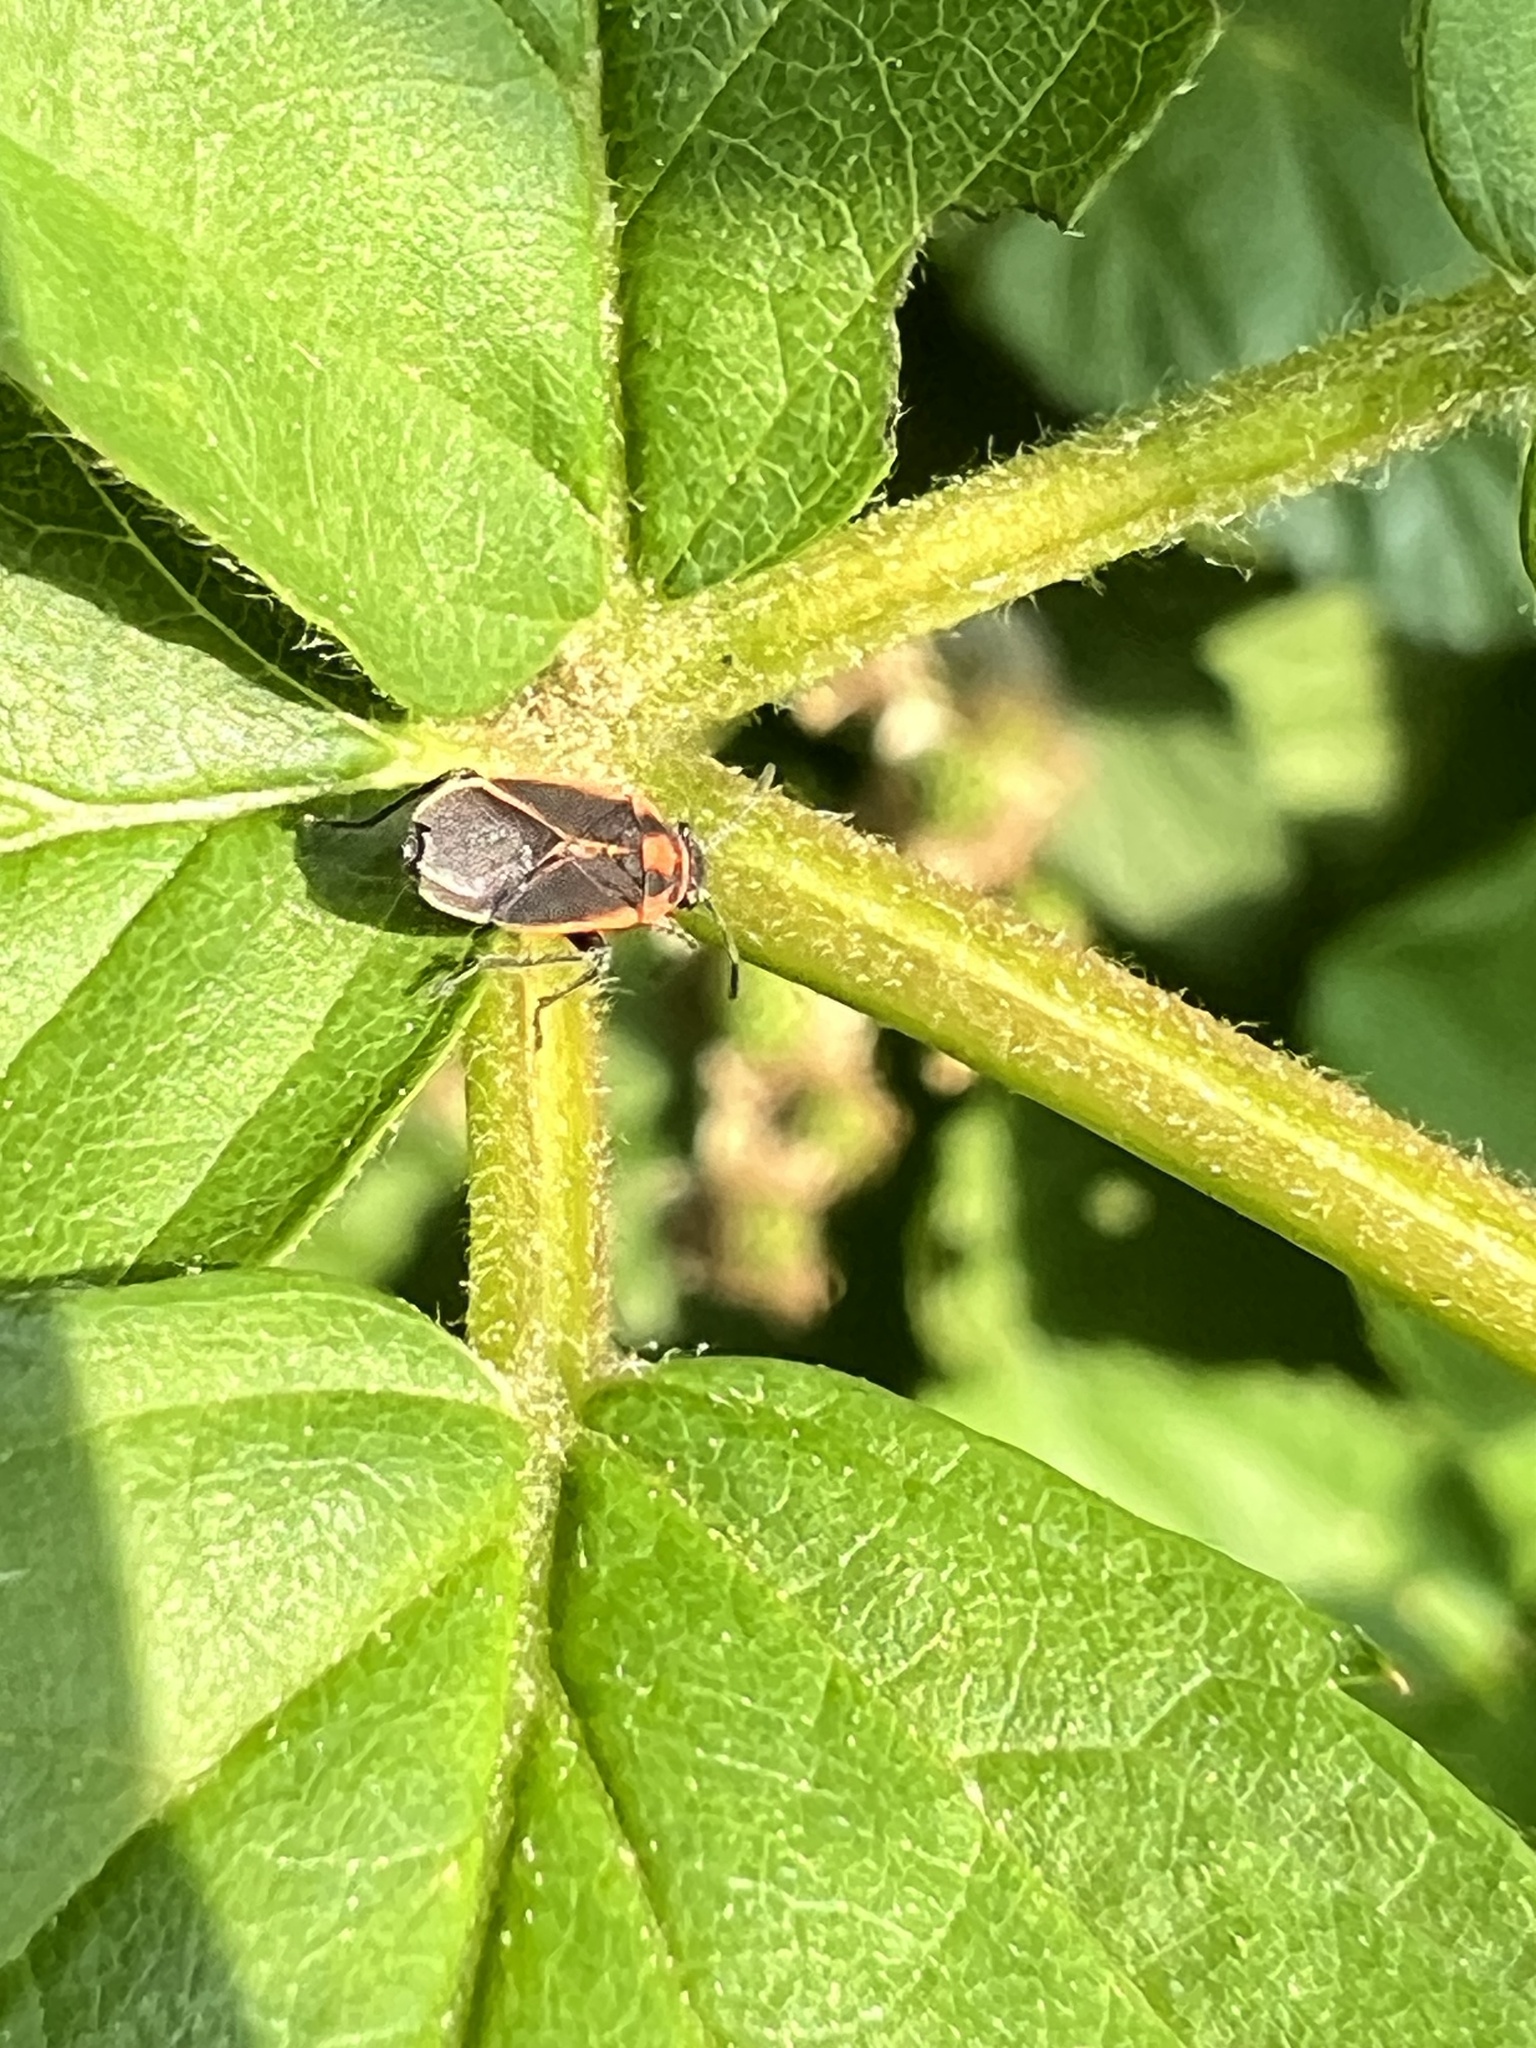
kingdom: Animalia
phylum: Arthropoda
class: Insecta
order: Hemiptera
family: Lygaeidae
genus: Ochrimnus
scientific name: Ochrimnus lineoloides
